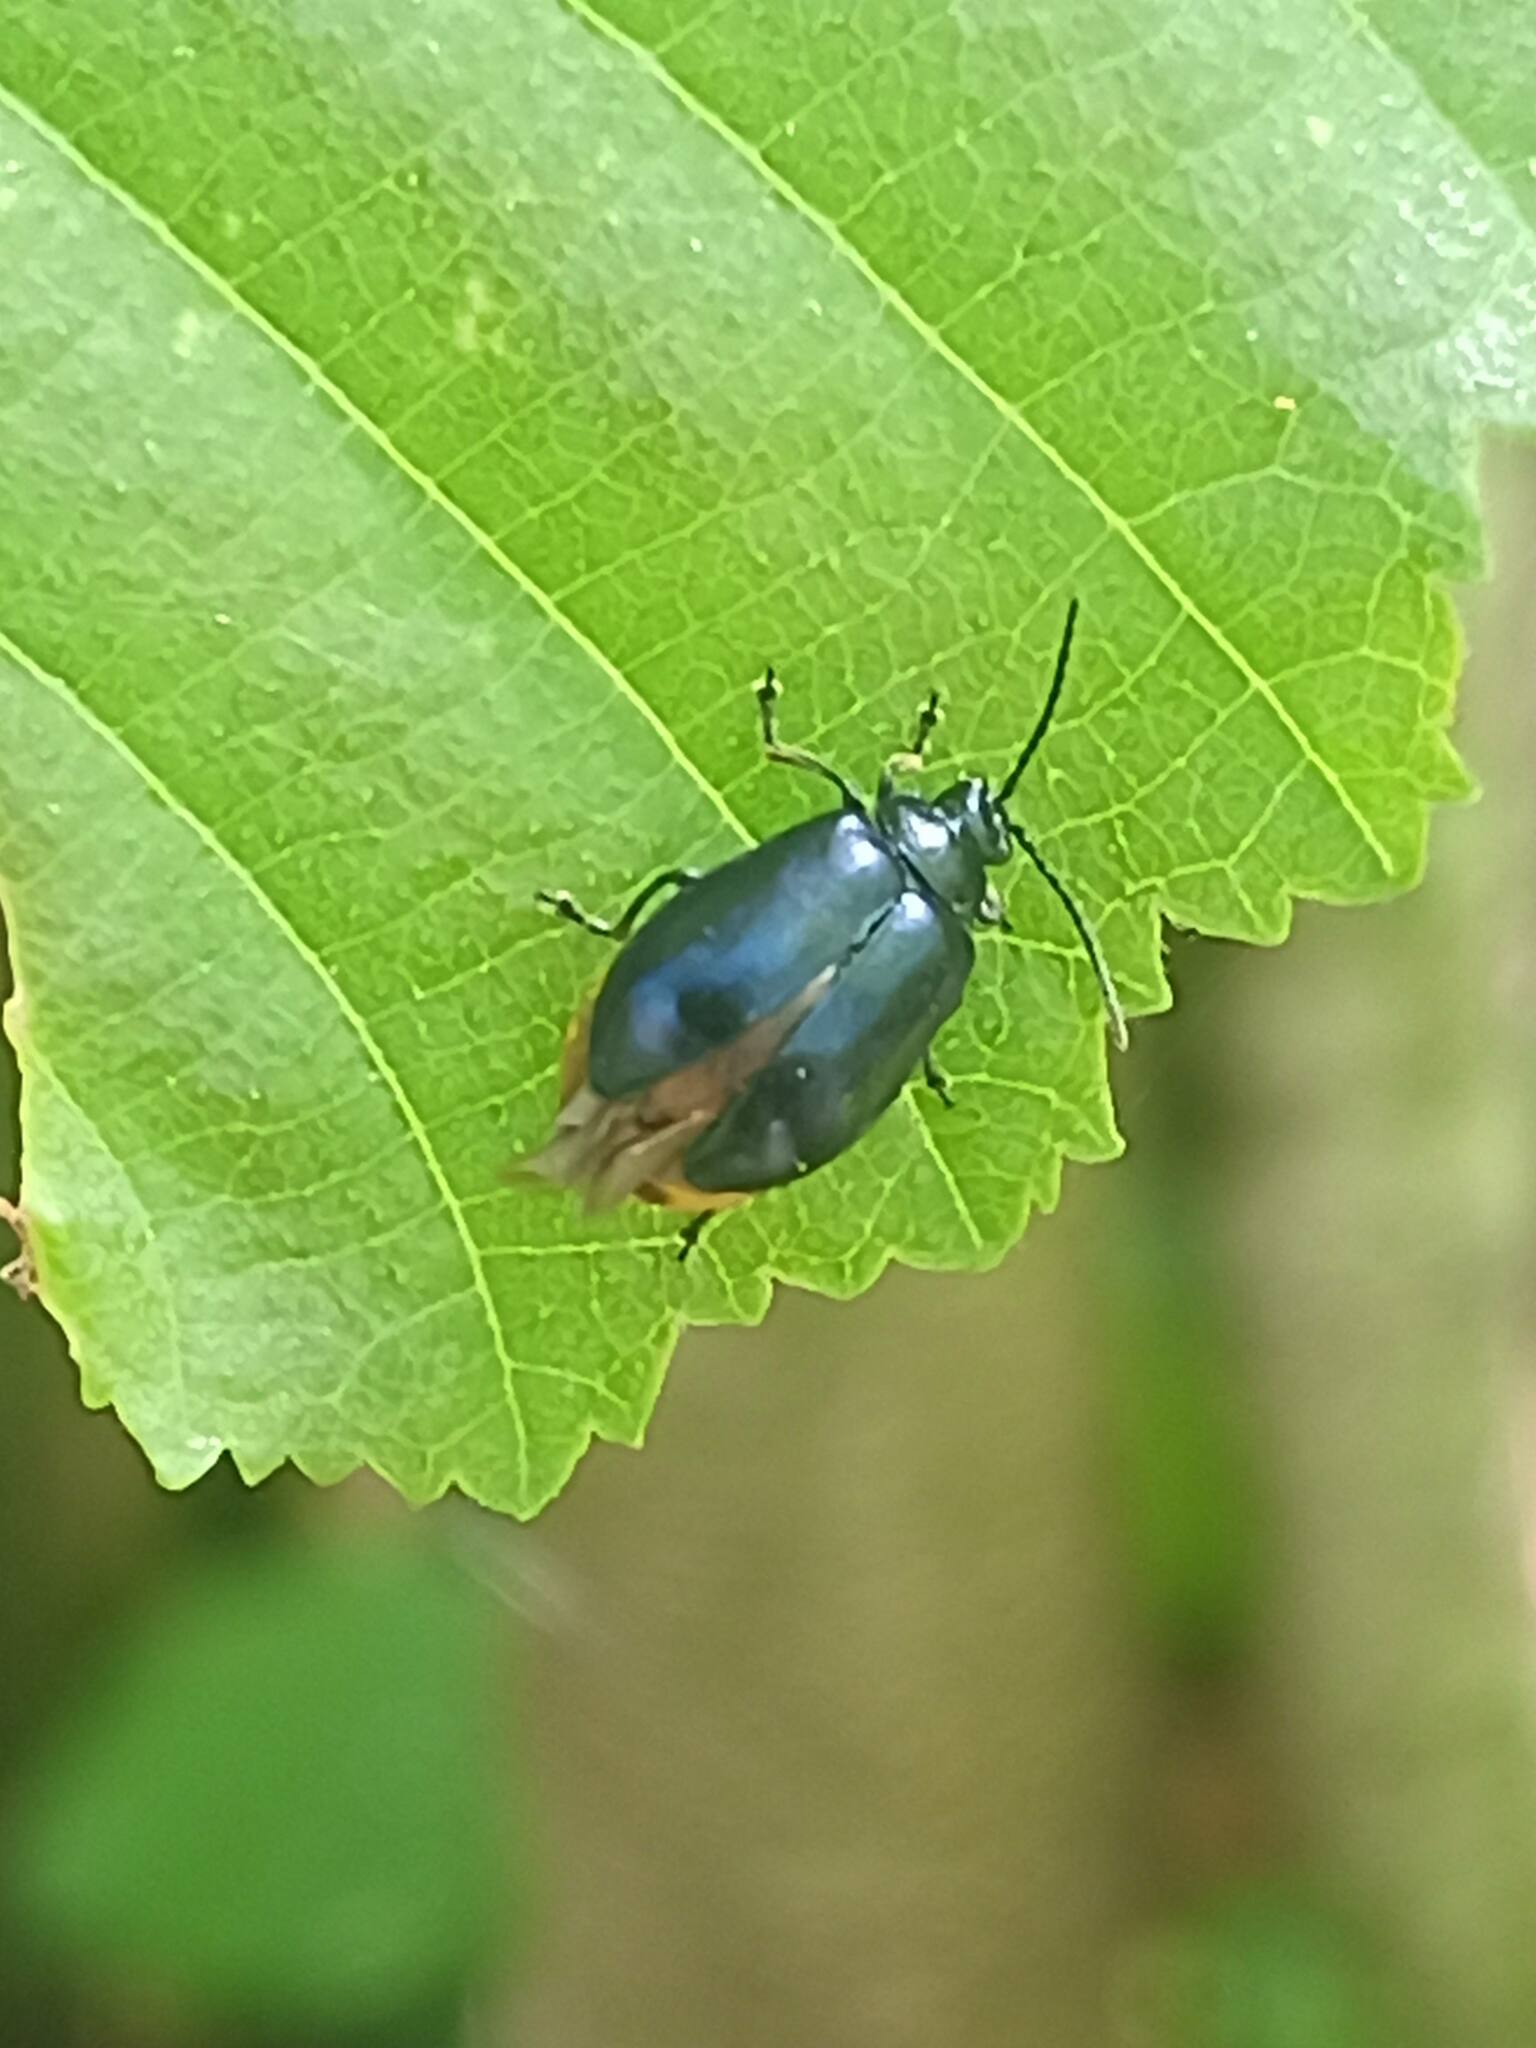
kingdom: Animalia
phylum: Arthropoda
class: Insecta
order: Coleoptera
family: Chrysomelidae
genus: Agelastica
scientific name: Agelastica alni
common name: Alder leaf beetle
